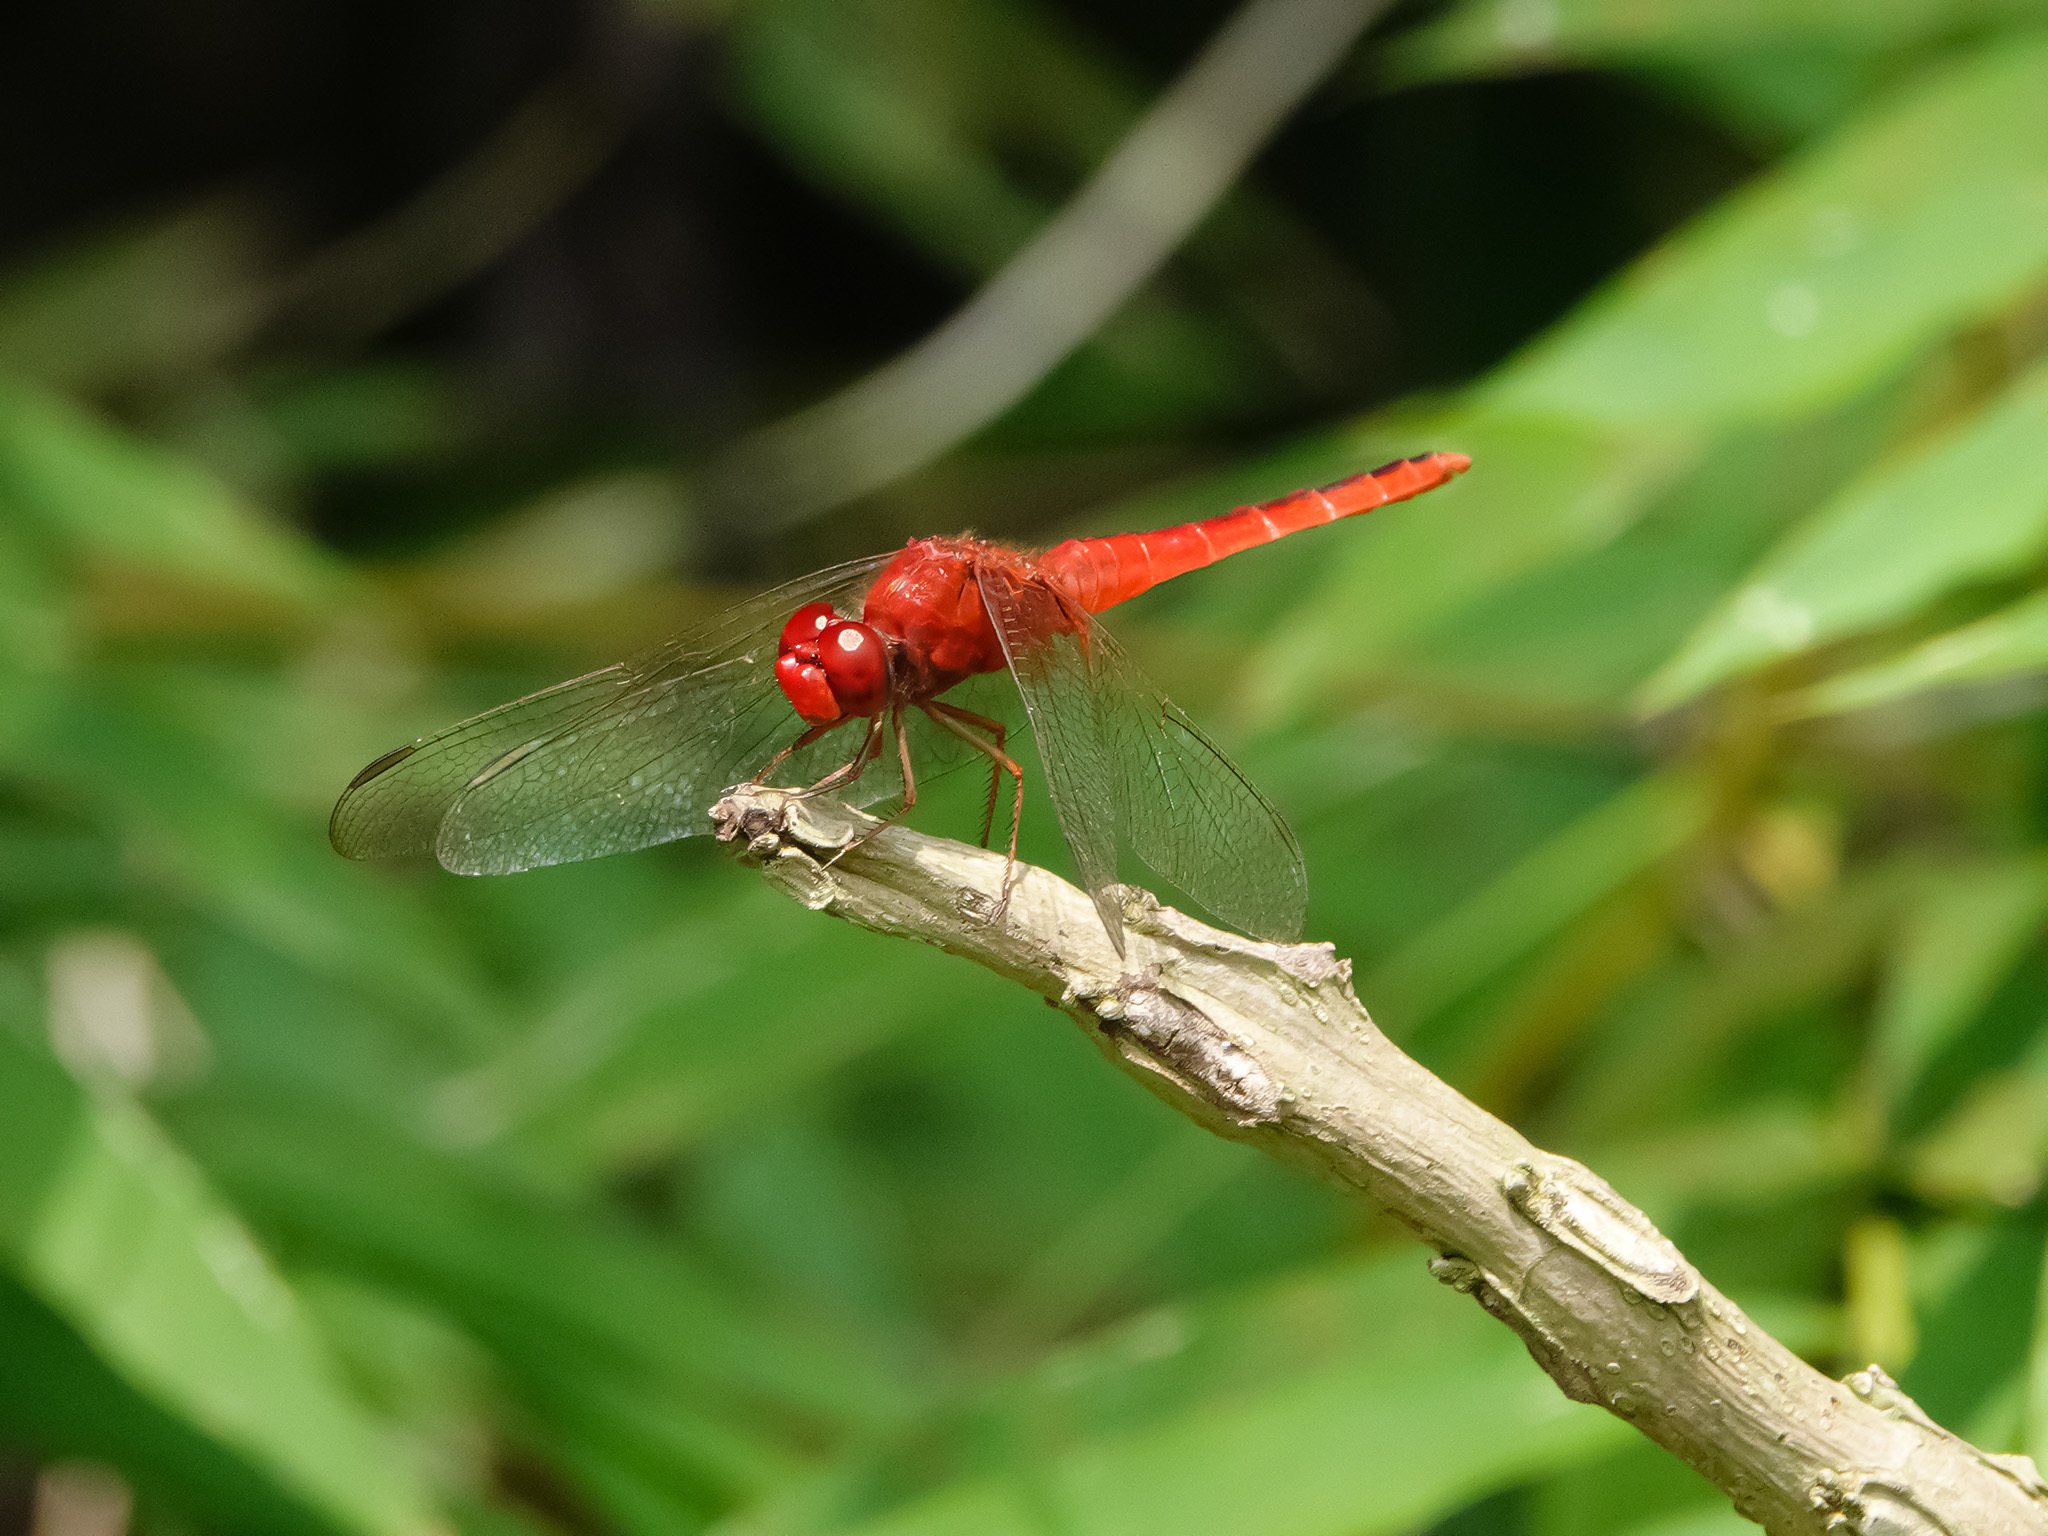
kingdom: Animalia
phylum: Arthropoda
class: Insecta
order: Odonata
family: Libellulidae
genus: Crocothemis
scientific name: Crocothemis servilia
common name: Scarlet skimmer
